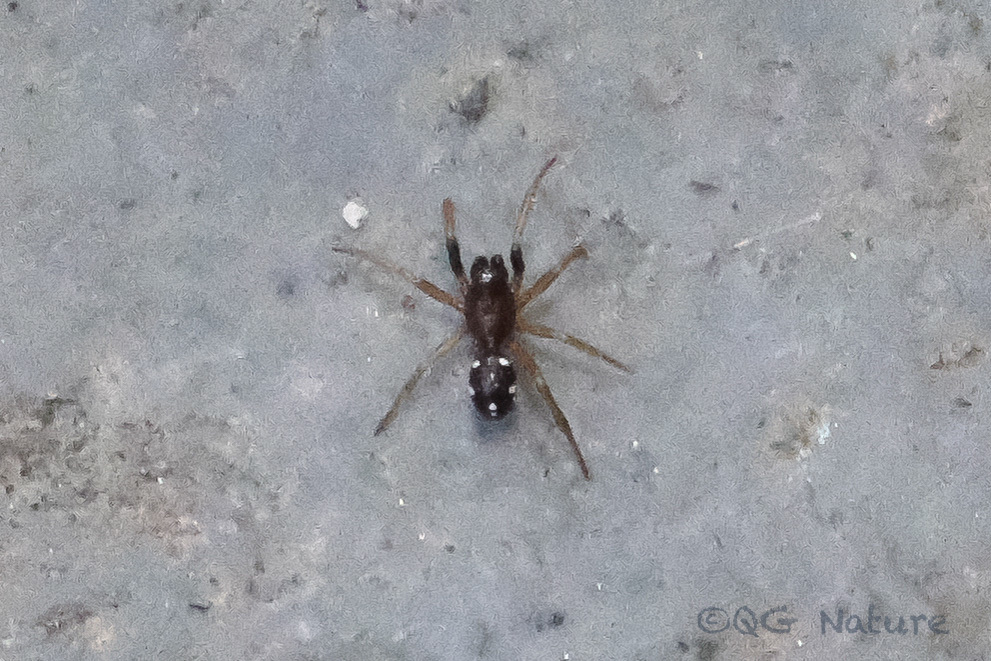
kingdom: Animalia
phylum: Arthropoda
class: Arachnida
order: Araneae
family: Theridiidae
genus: Steatoda
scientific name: Steatoda erigoniformis
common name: Cobweb spiders
